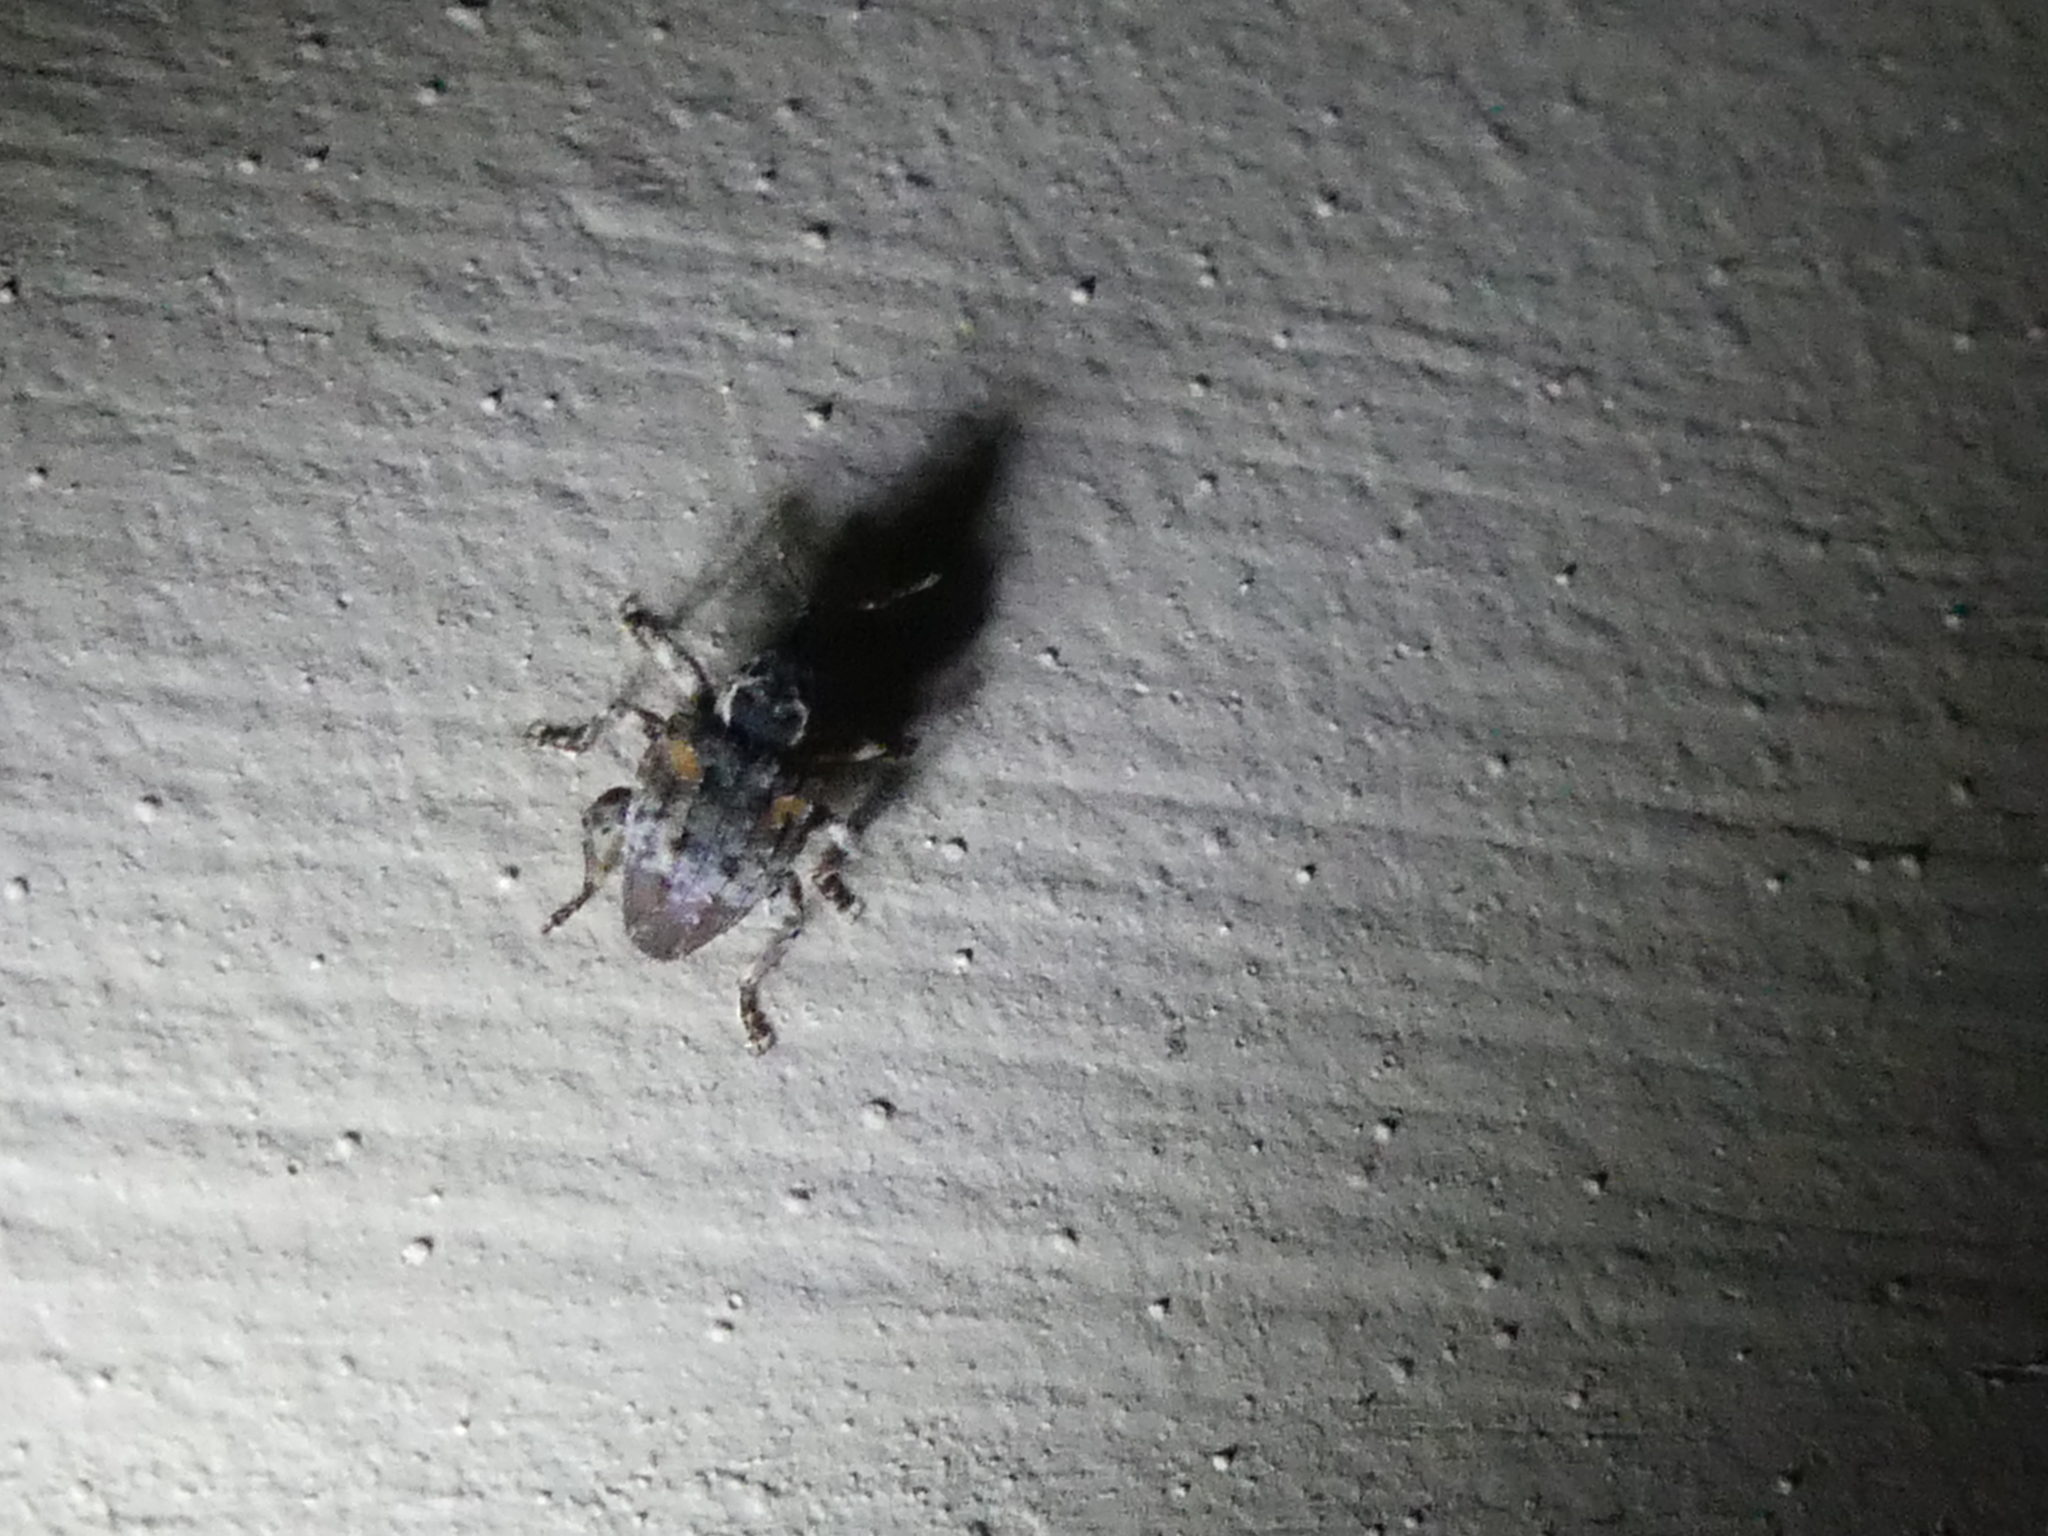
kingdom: Animalia
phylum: Arthropoda
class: Insecta
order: Coleoptera
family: Curculionidae
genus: Conotrachelus
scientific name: Conotrachelus anaglypticus
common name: Cambium curculio
